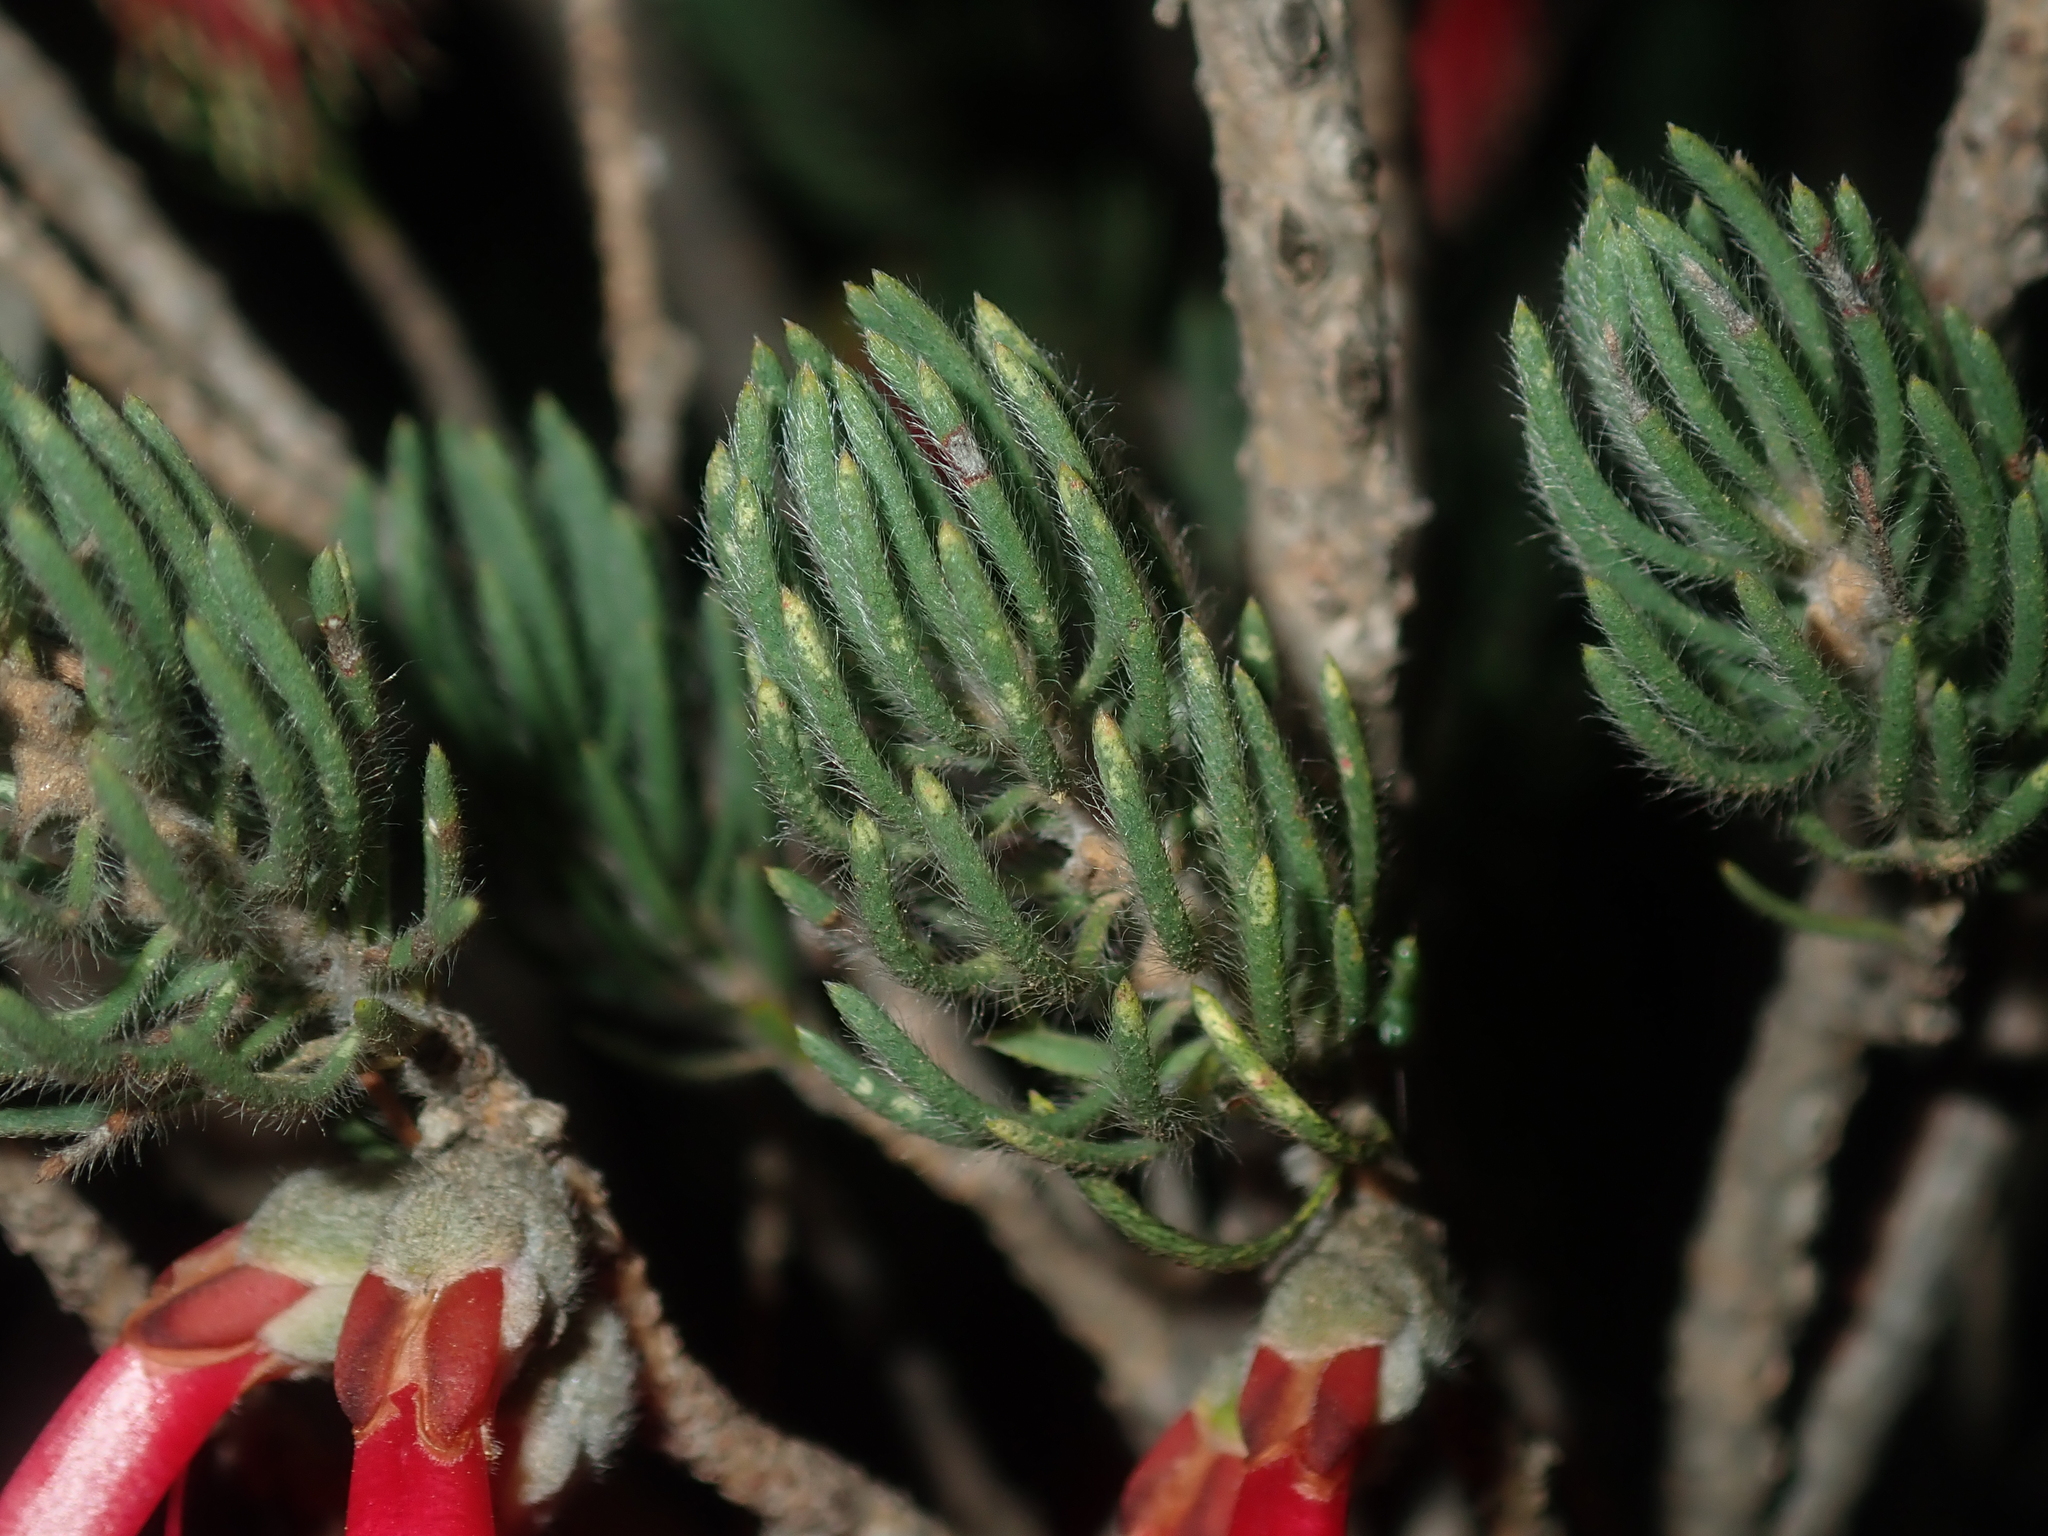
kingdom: Plantae
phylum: Tracheophyta
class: Magnoliopsida
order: Myrtales
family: Myrtaceae
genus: Melaleuca
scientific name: Melaleuca cruenta
